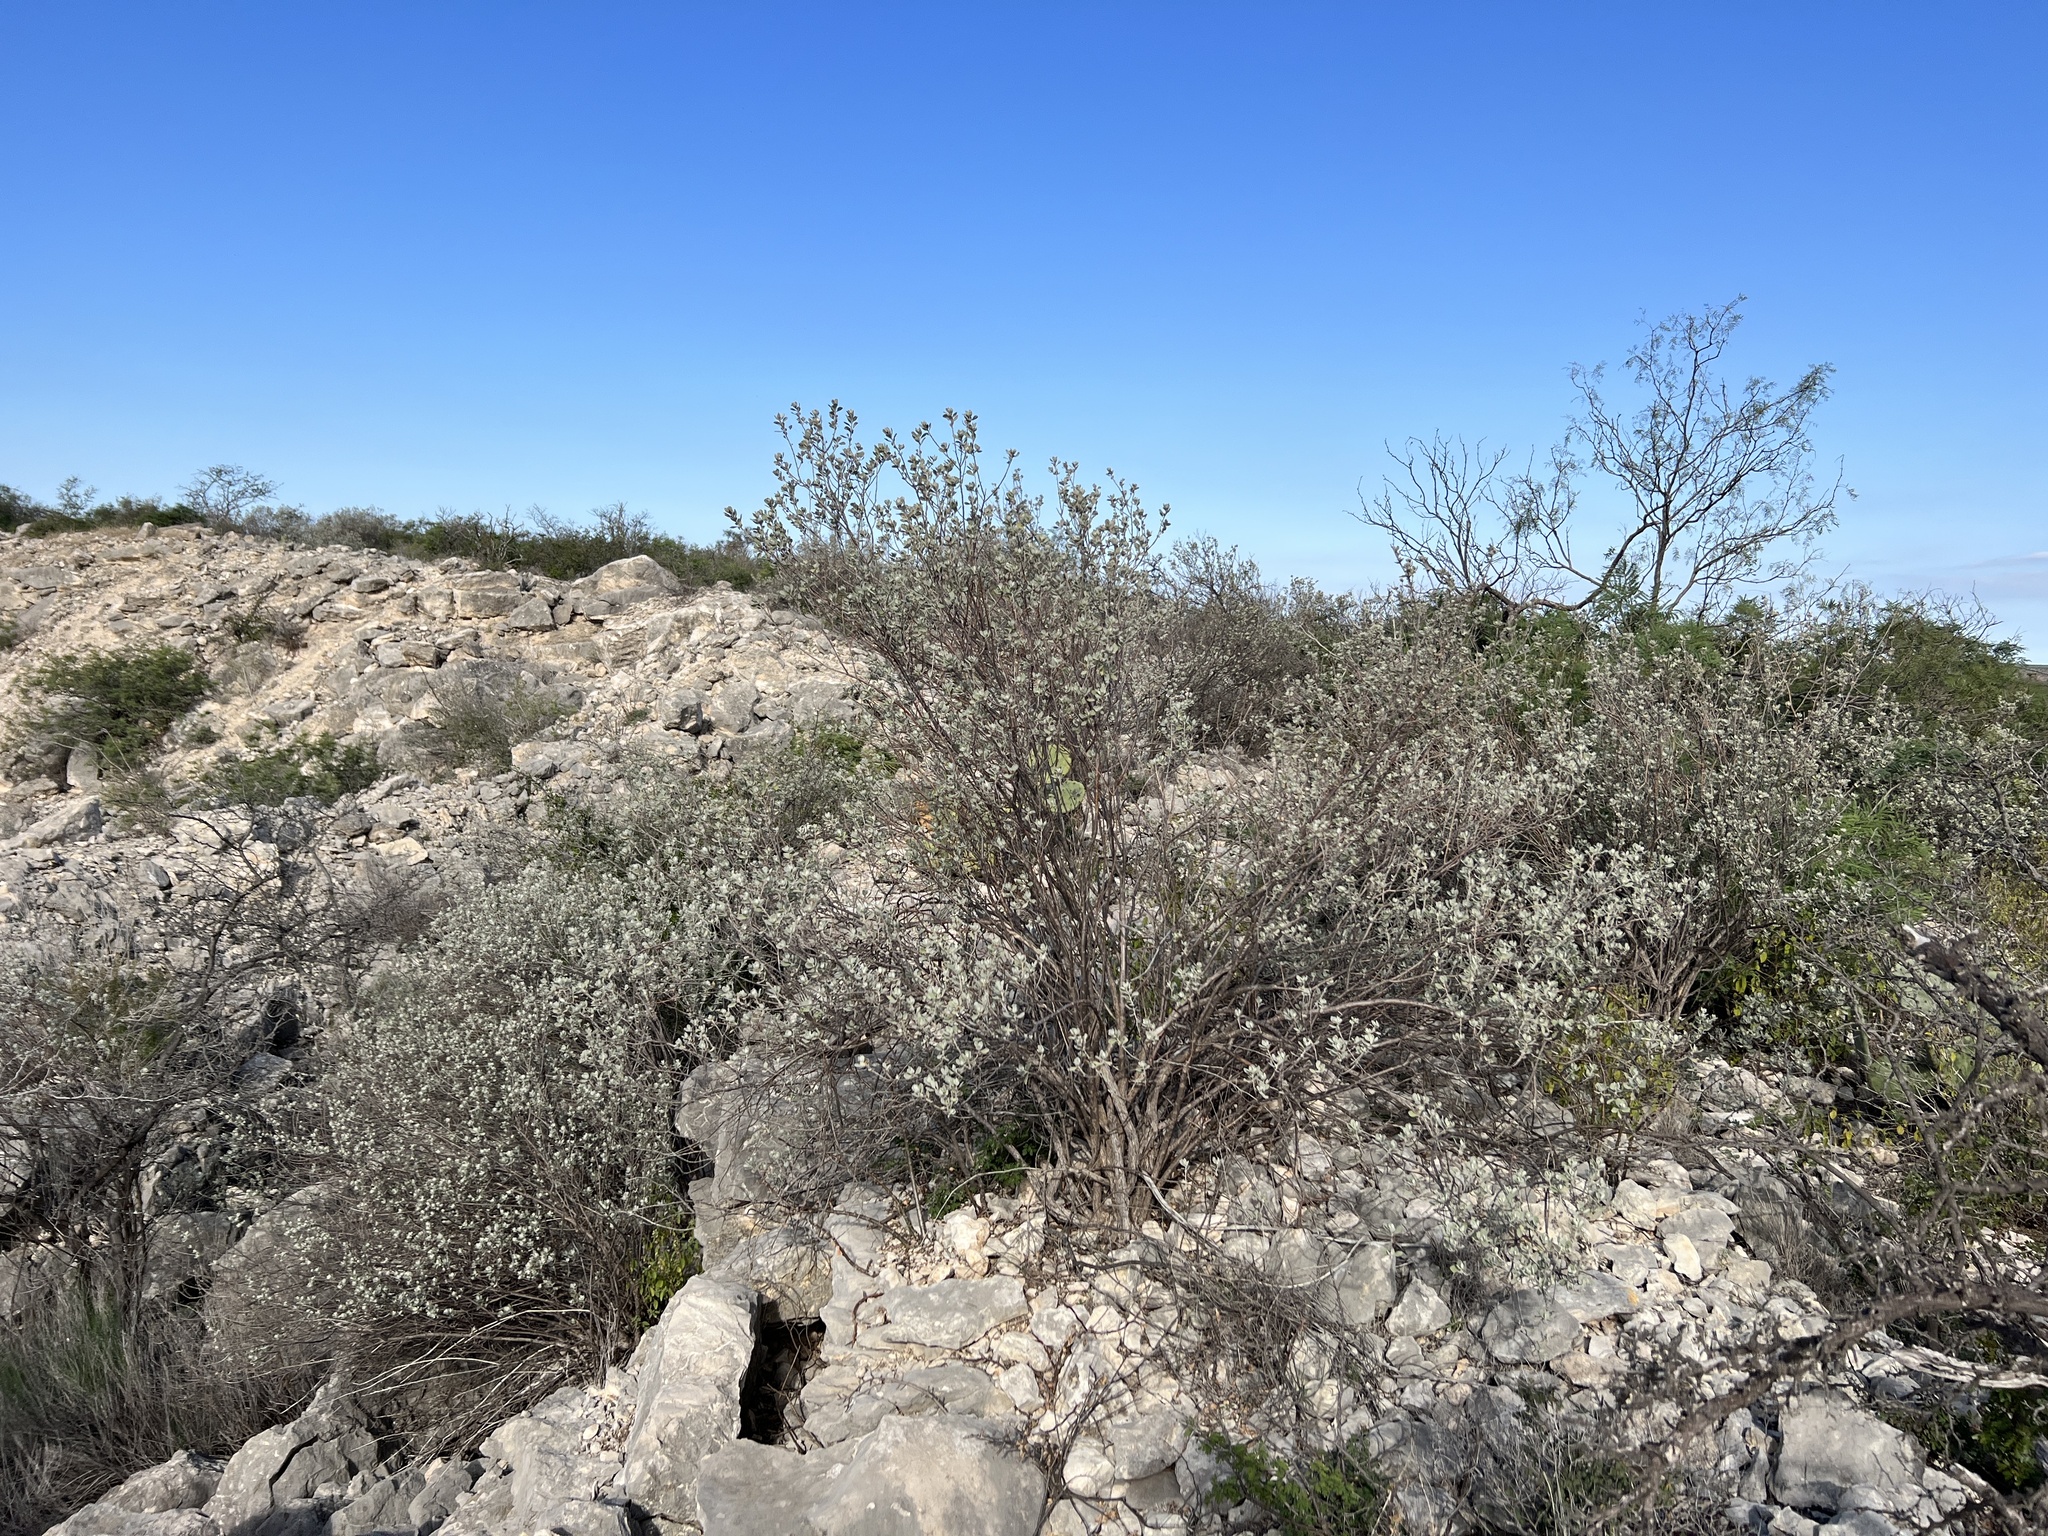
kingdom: Plantae
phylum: Tracheophyta
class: Magnoliopsida
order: Lamiales
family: Scrophulariaceae
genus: Leucophyllum
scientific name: Leucophyllum frutescens
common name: Texas silverleaf
